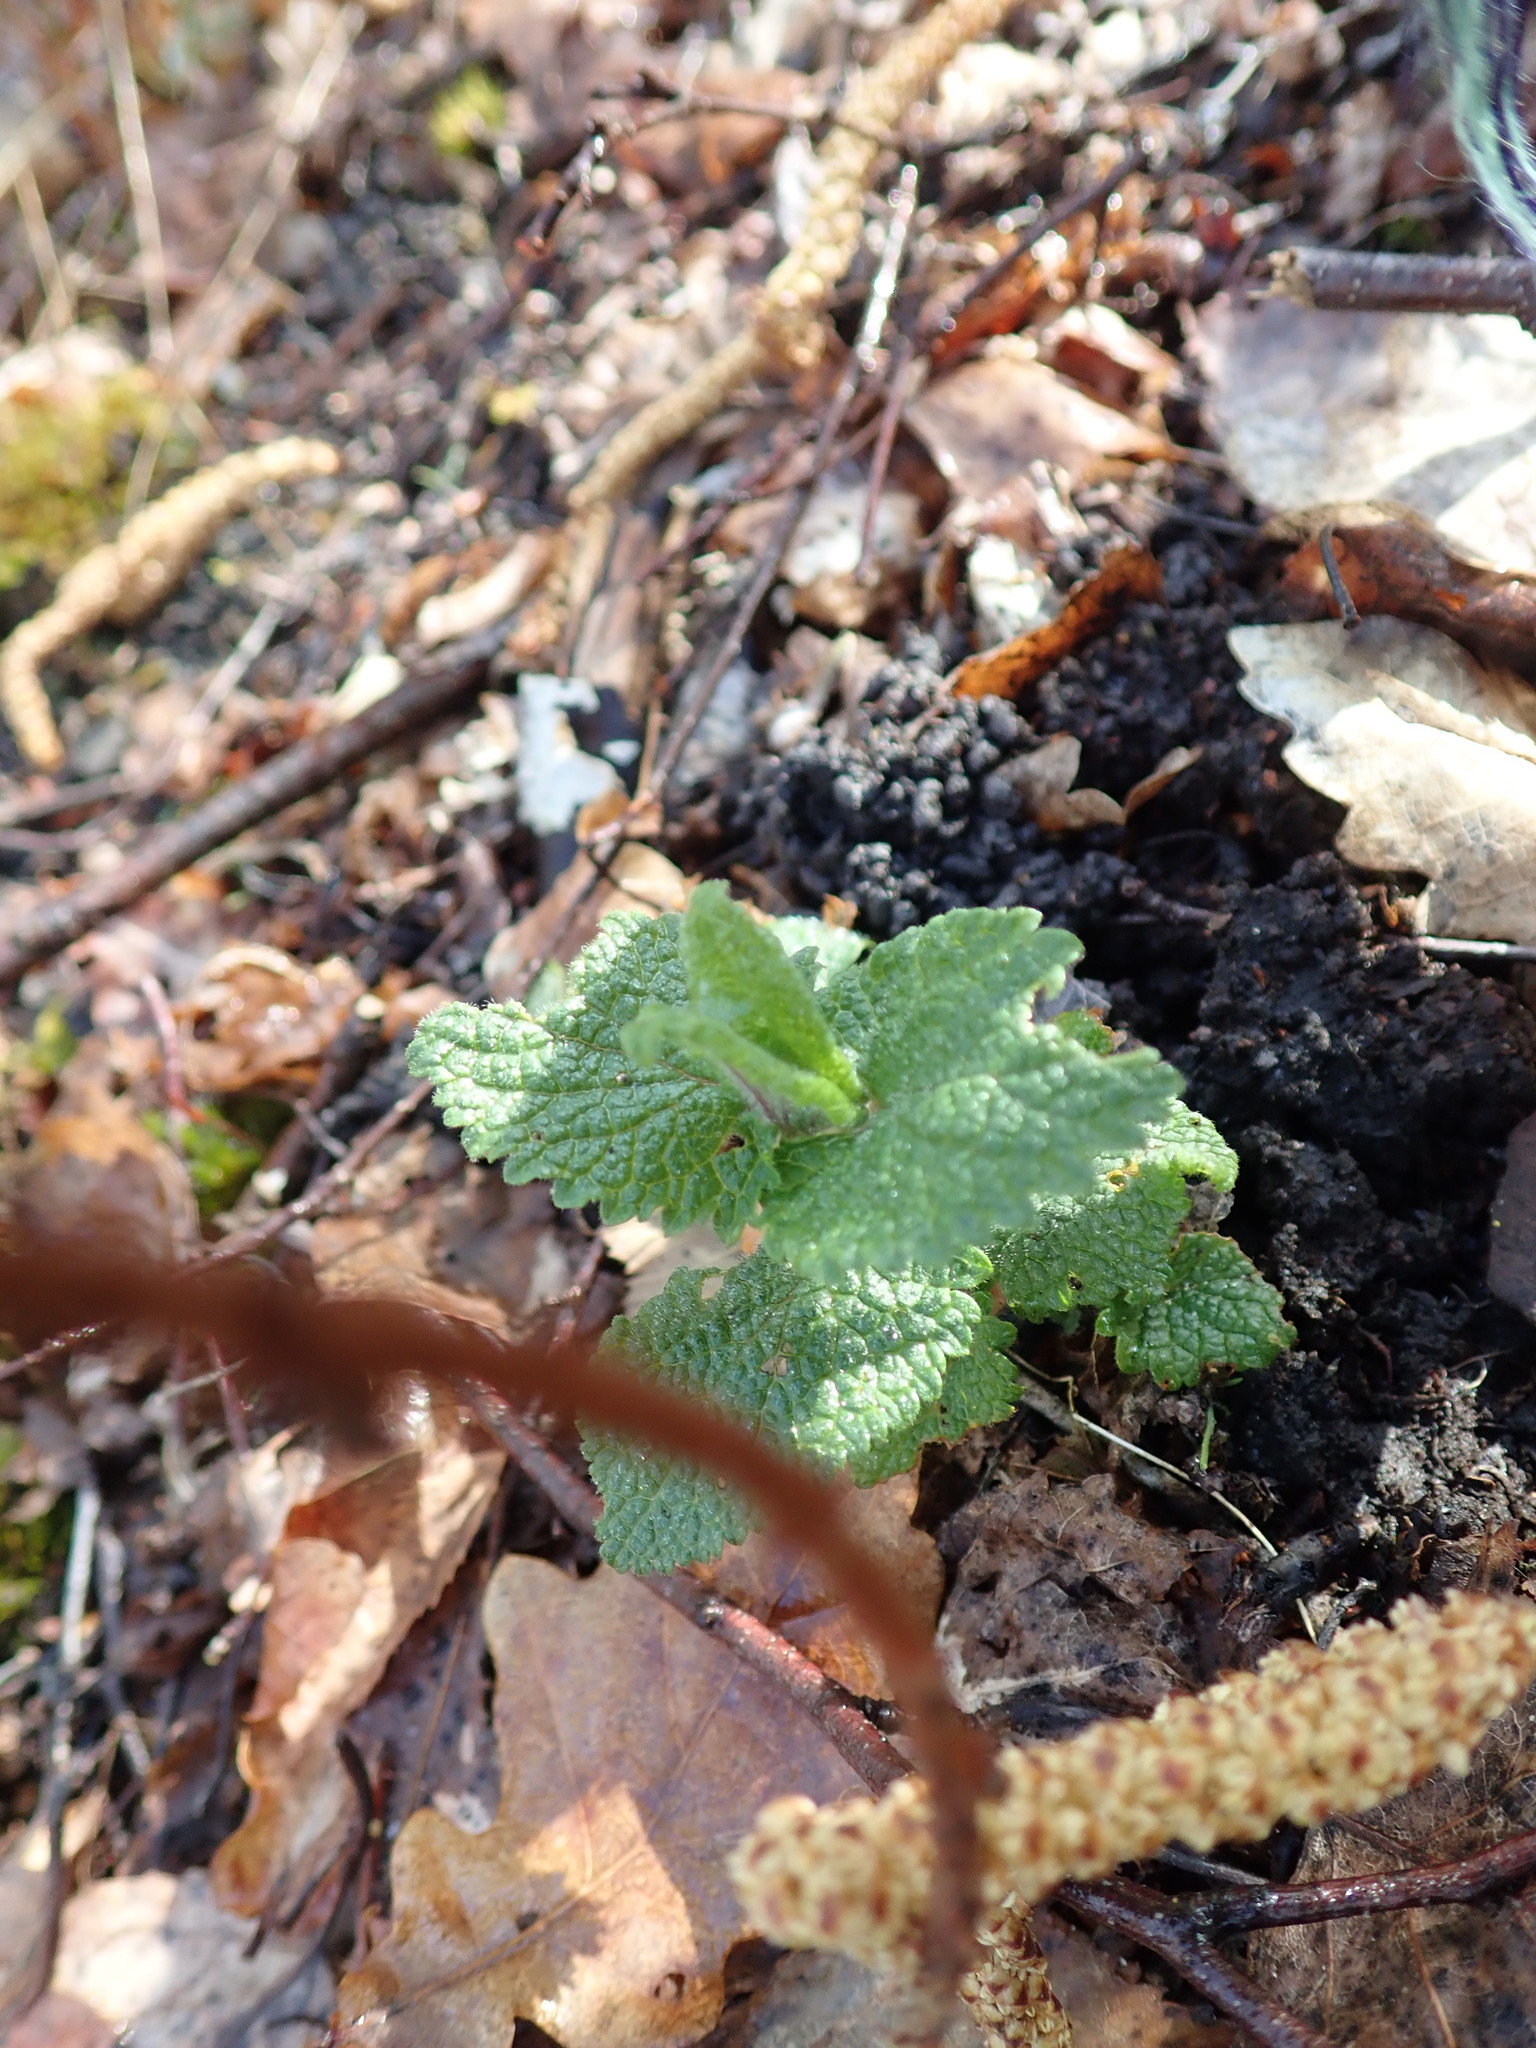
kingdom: Plantae
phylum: Tracheophyta
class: Magnoliopsida
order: Lamiales
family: Lamiaceae
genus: Teucrium
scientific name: Teucrium scorodonia
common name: Woodland germander
